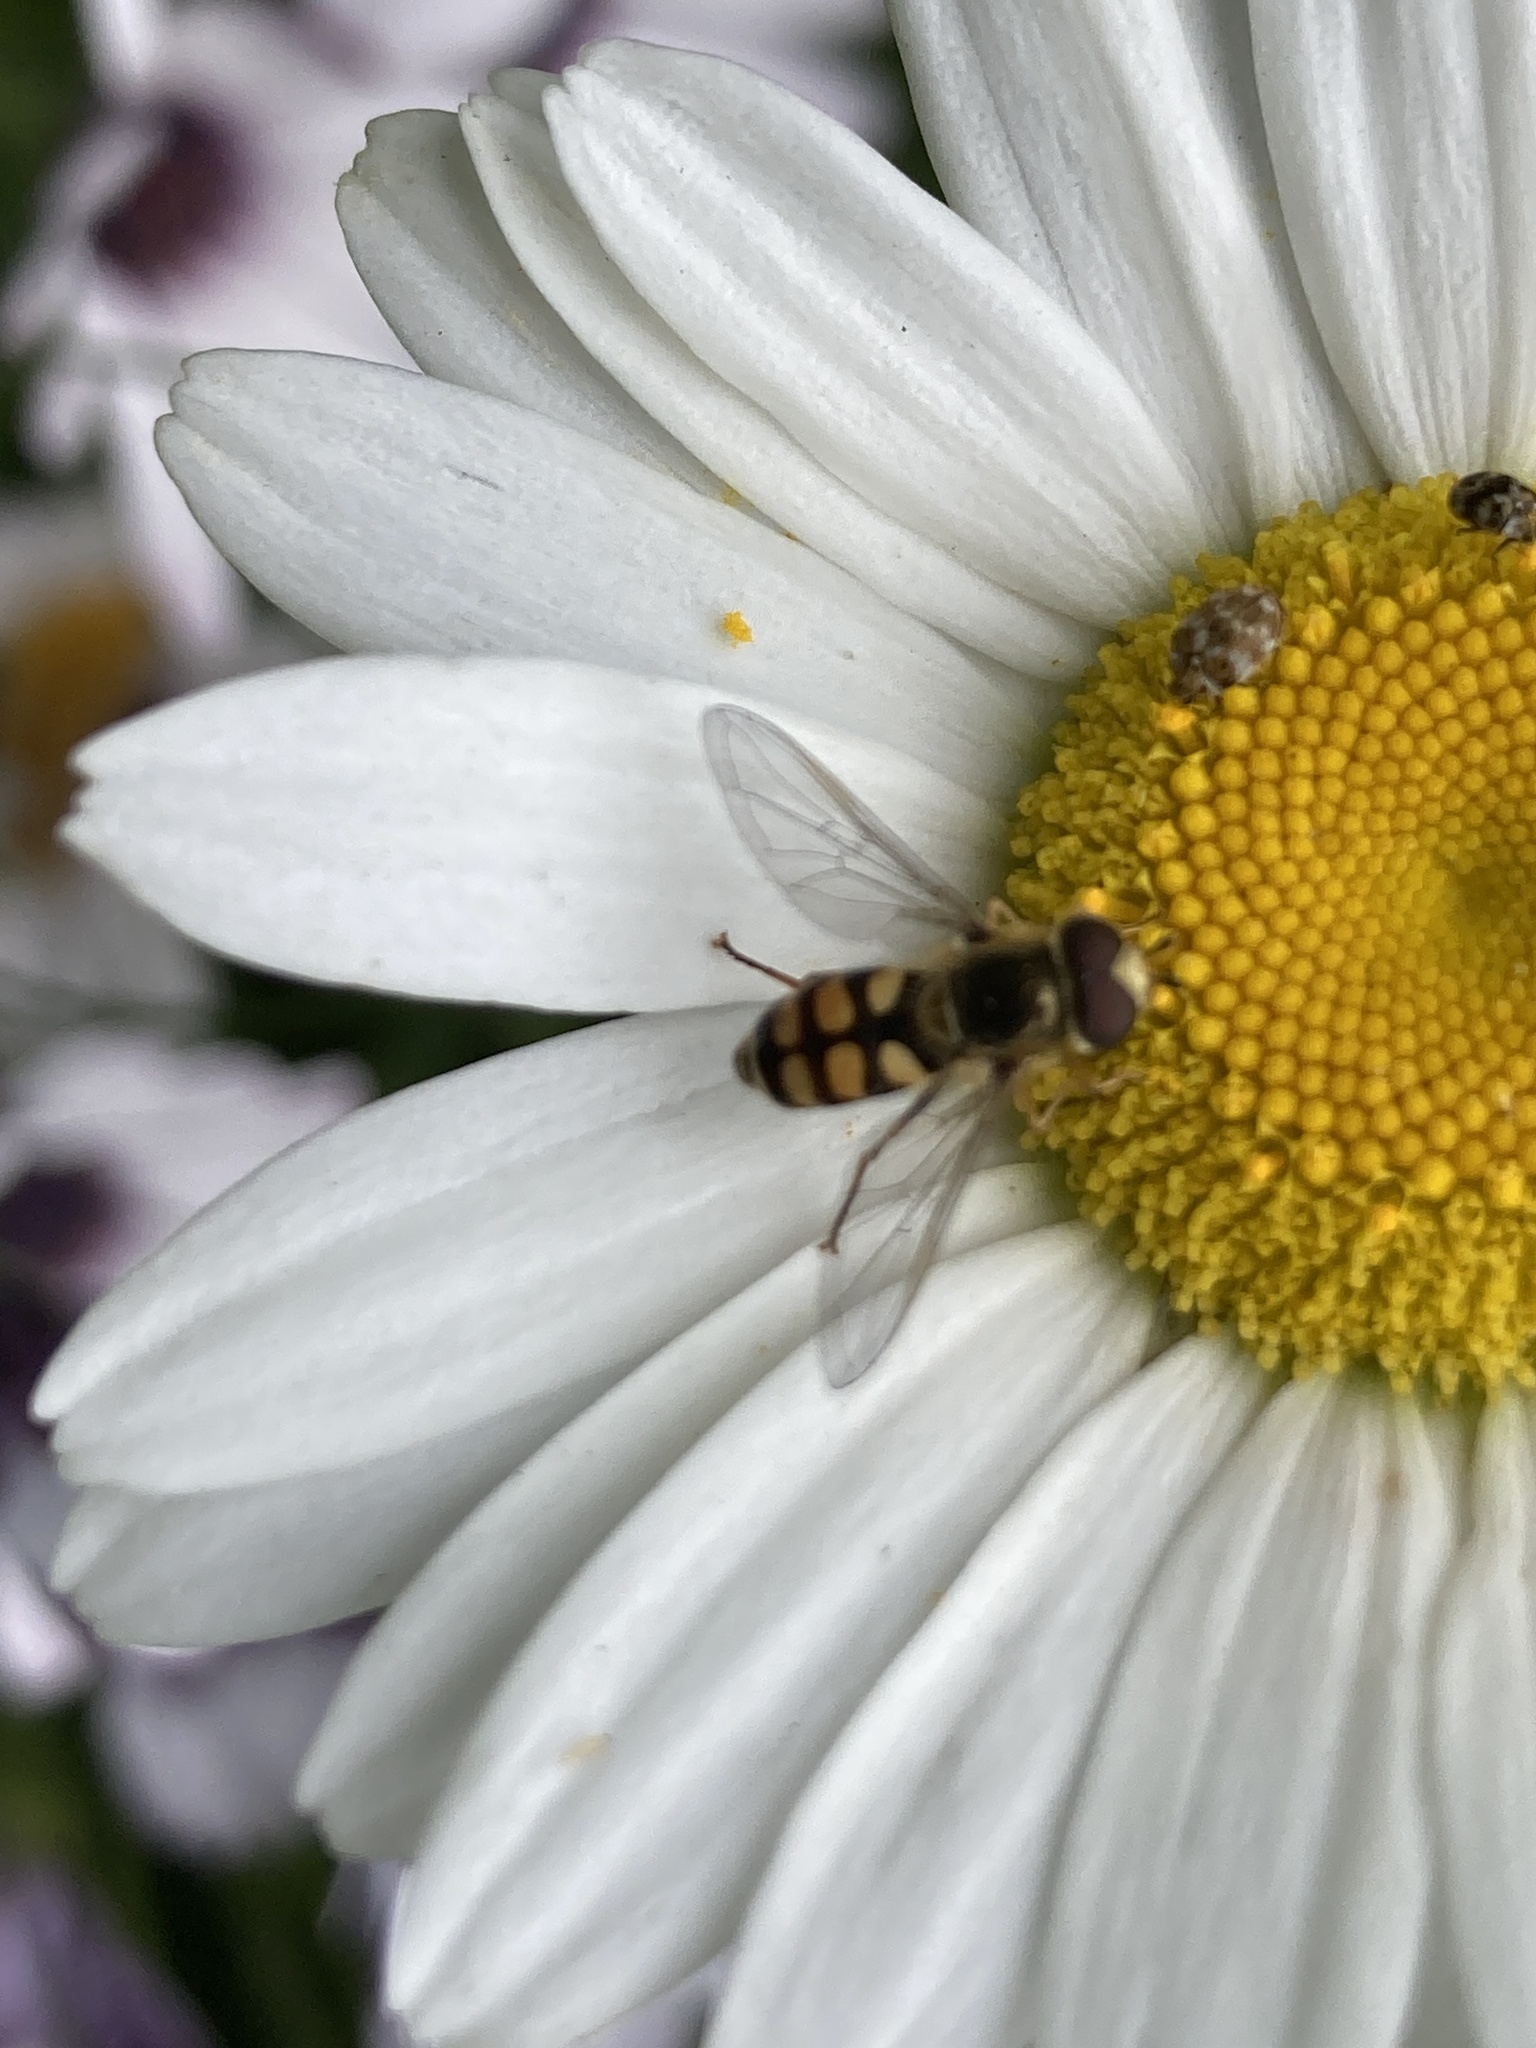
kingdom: Animalia
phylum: Arthropoda
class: Insecta
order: Diptera
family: Syrphidae
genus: Eupeodes
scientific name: Eupeodes corollae
